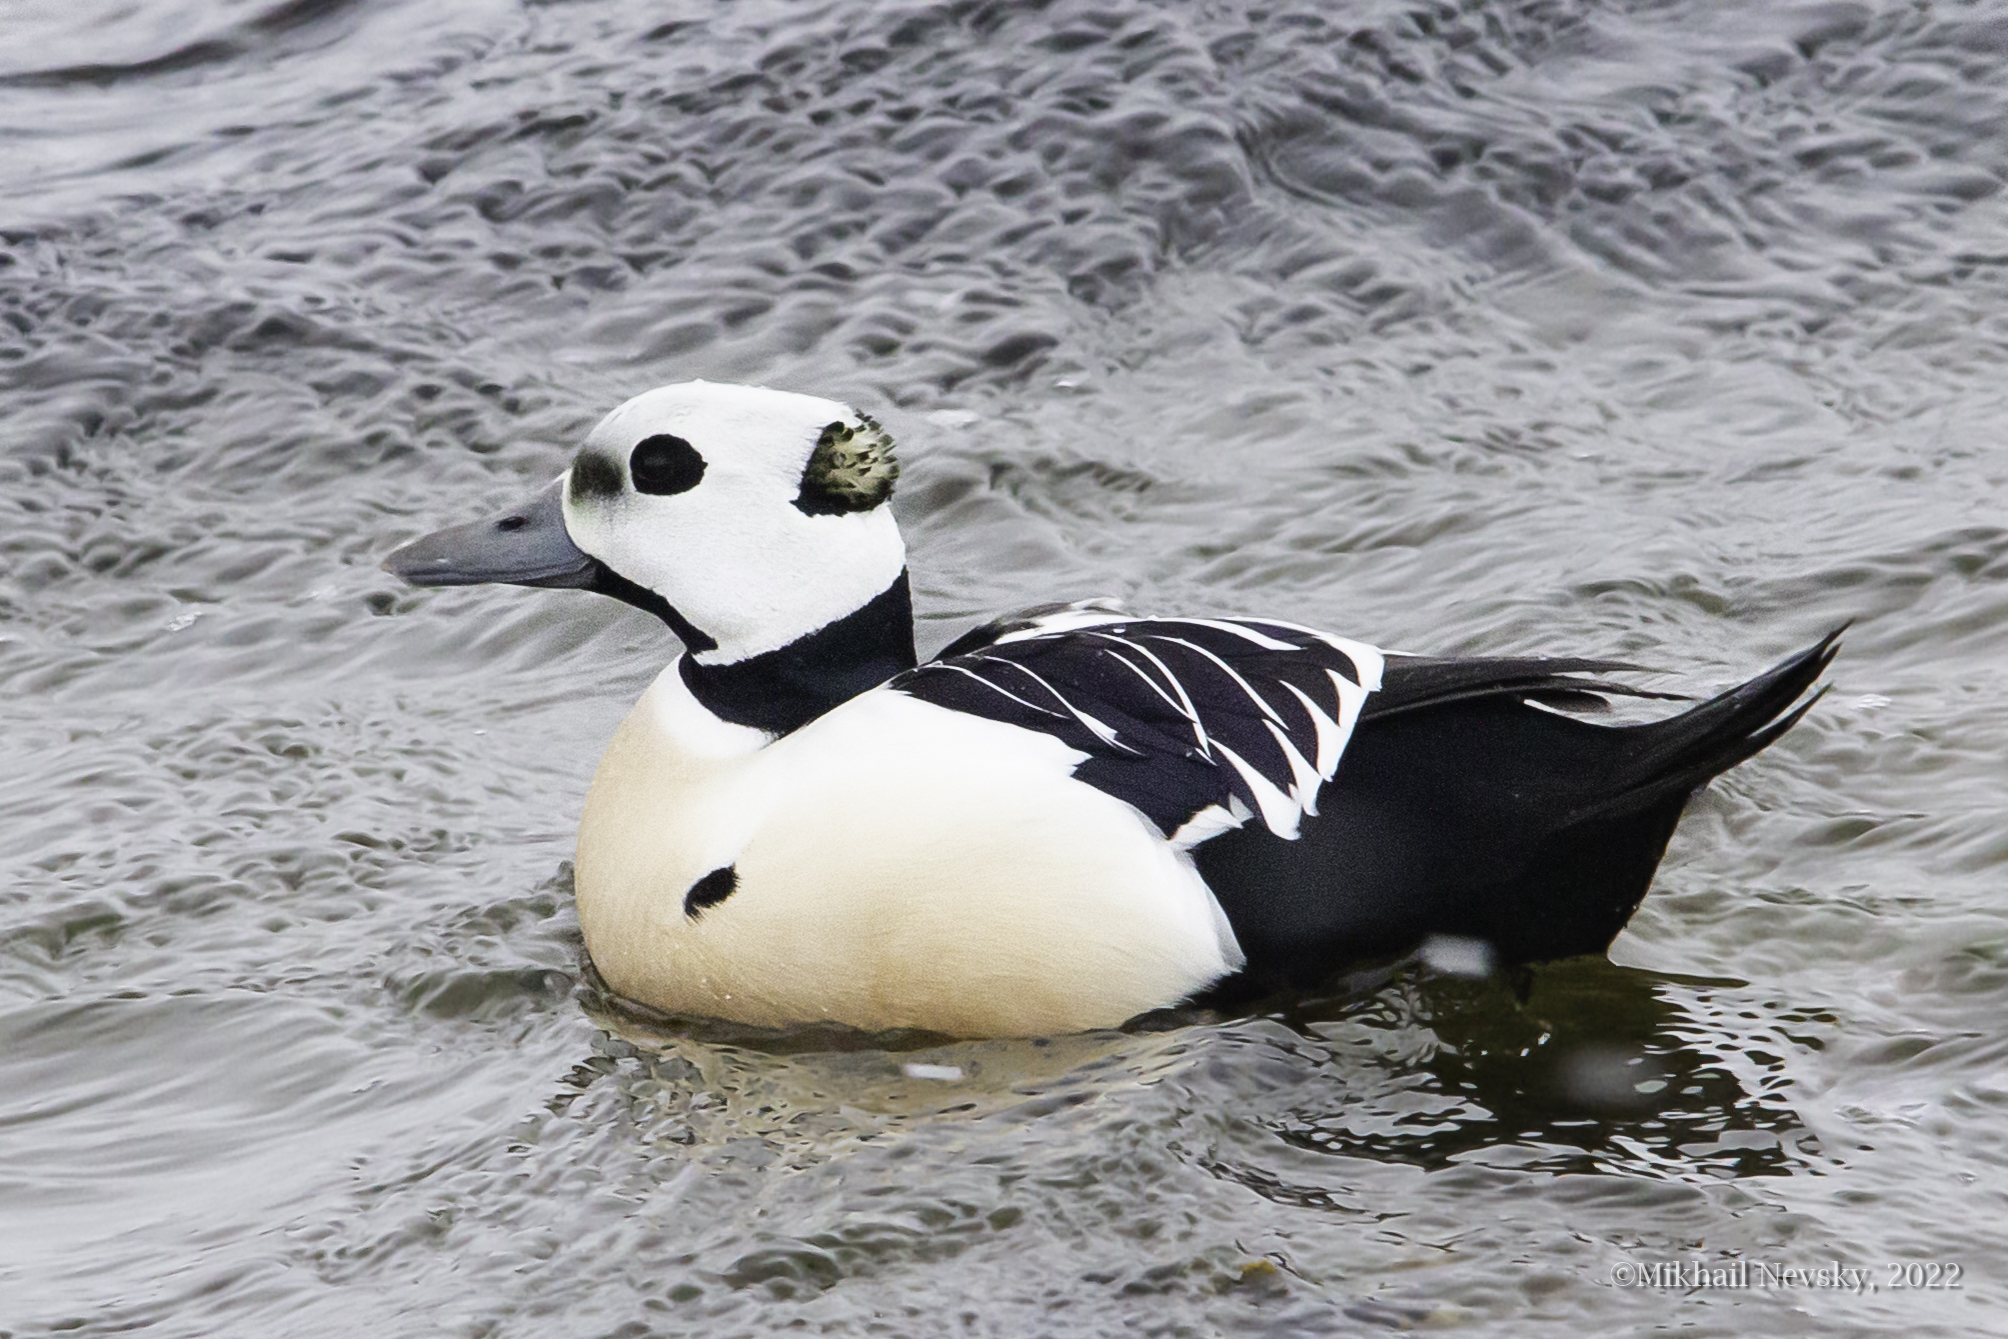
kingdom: Animalia
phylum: Chordata
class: Aves
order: Anseriformes
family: Anatidae
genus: Polysticta
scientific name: Polysticta stelleri
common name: Steller's eider
